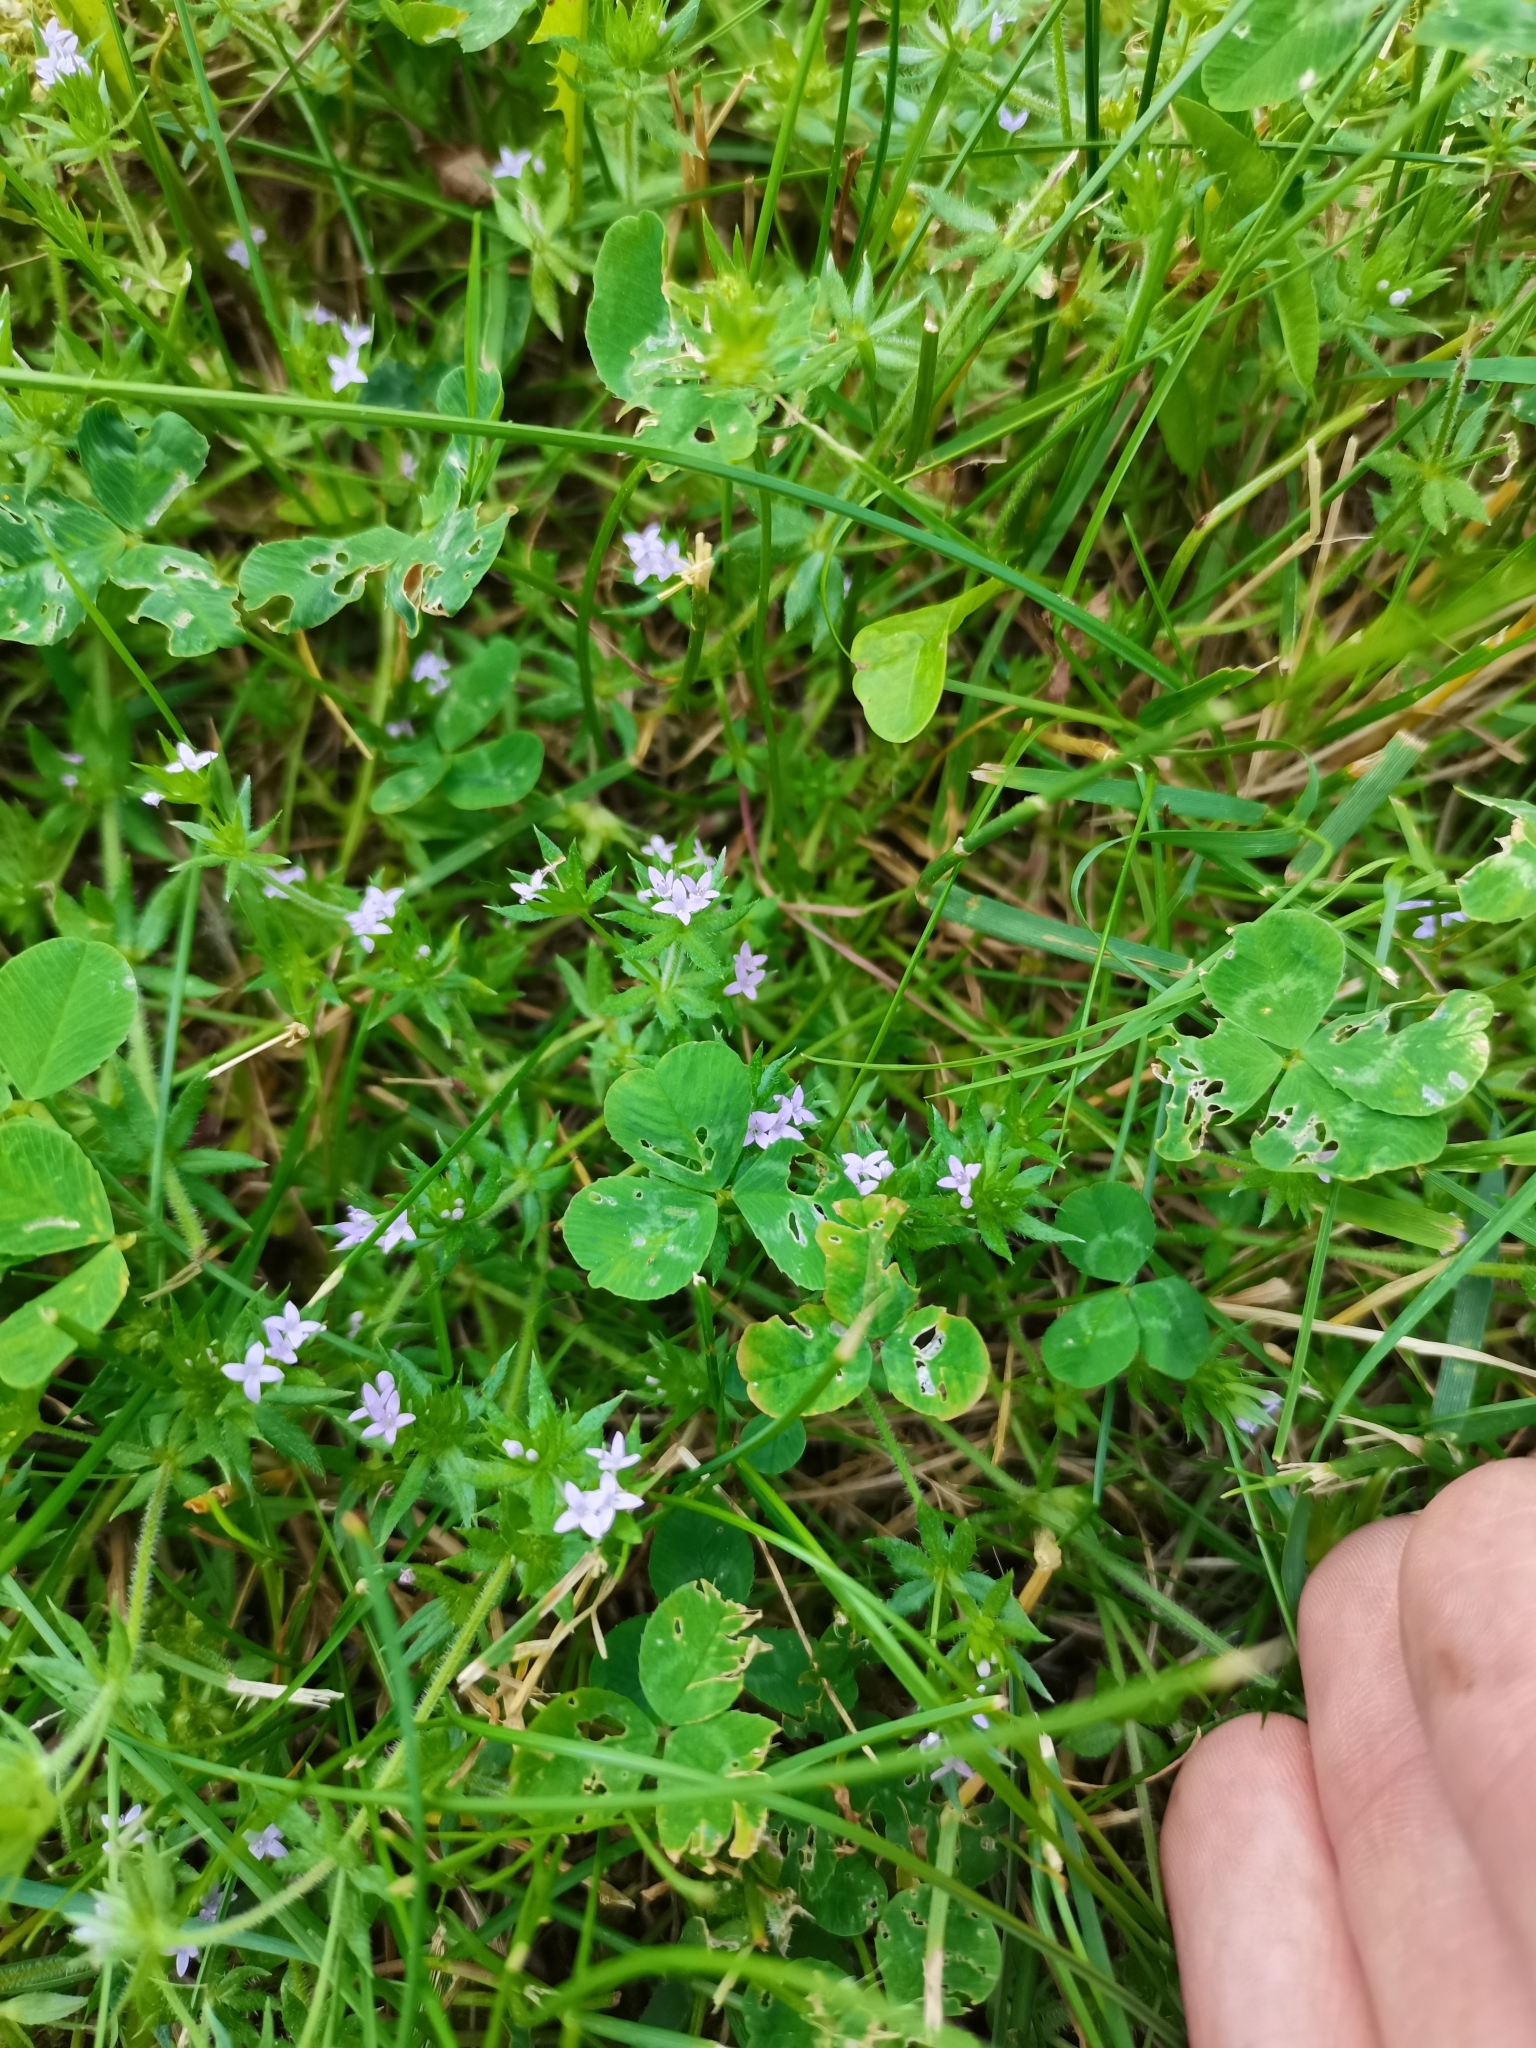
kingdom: Plantae
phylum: Tracheophyta
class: Magnoliopsida
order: Gentianales
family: Rubiaceae
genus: Sherardia
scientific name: Sherardia arvensis
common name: Field madder
